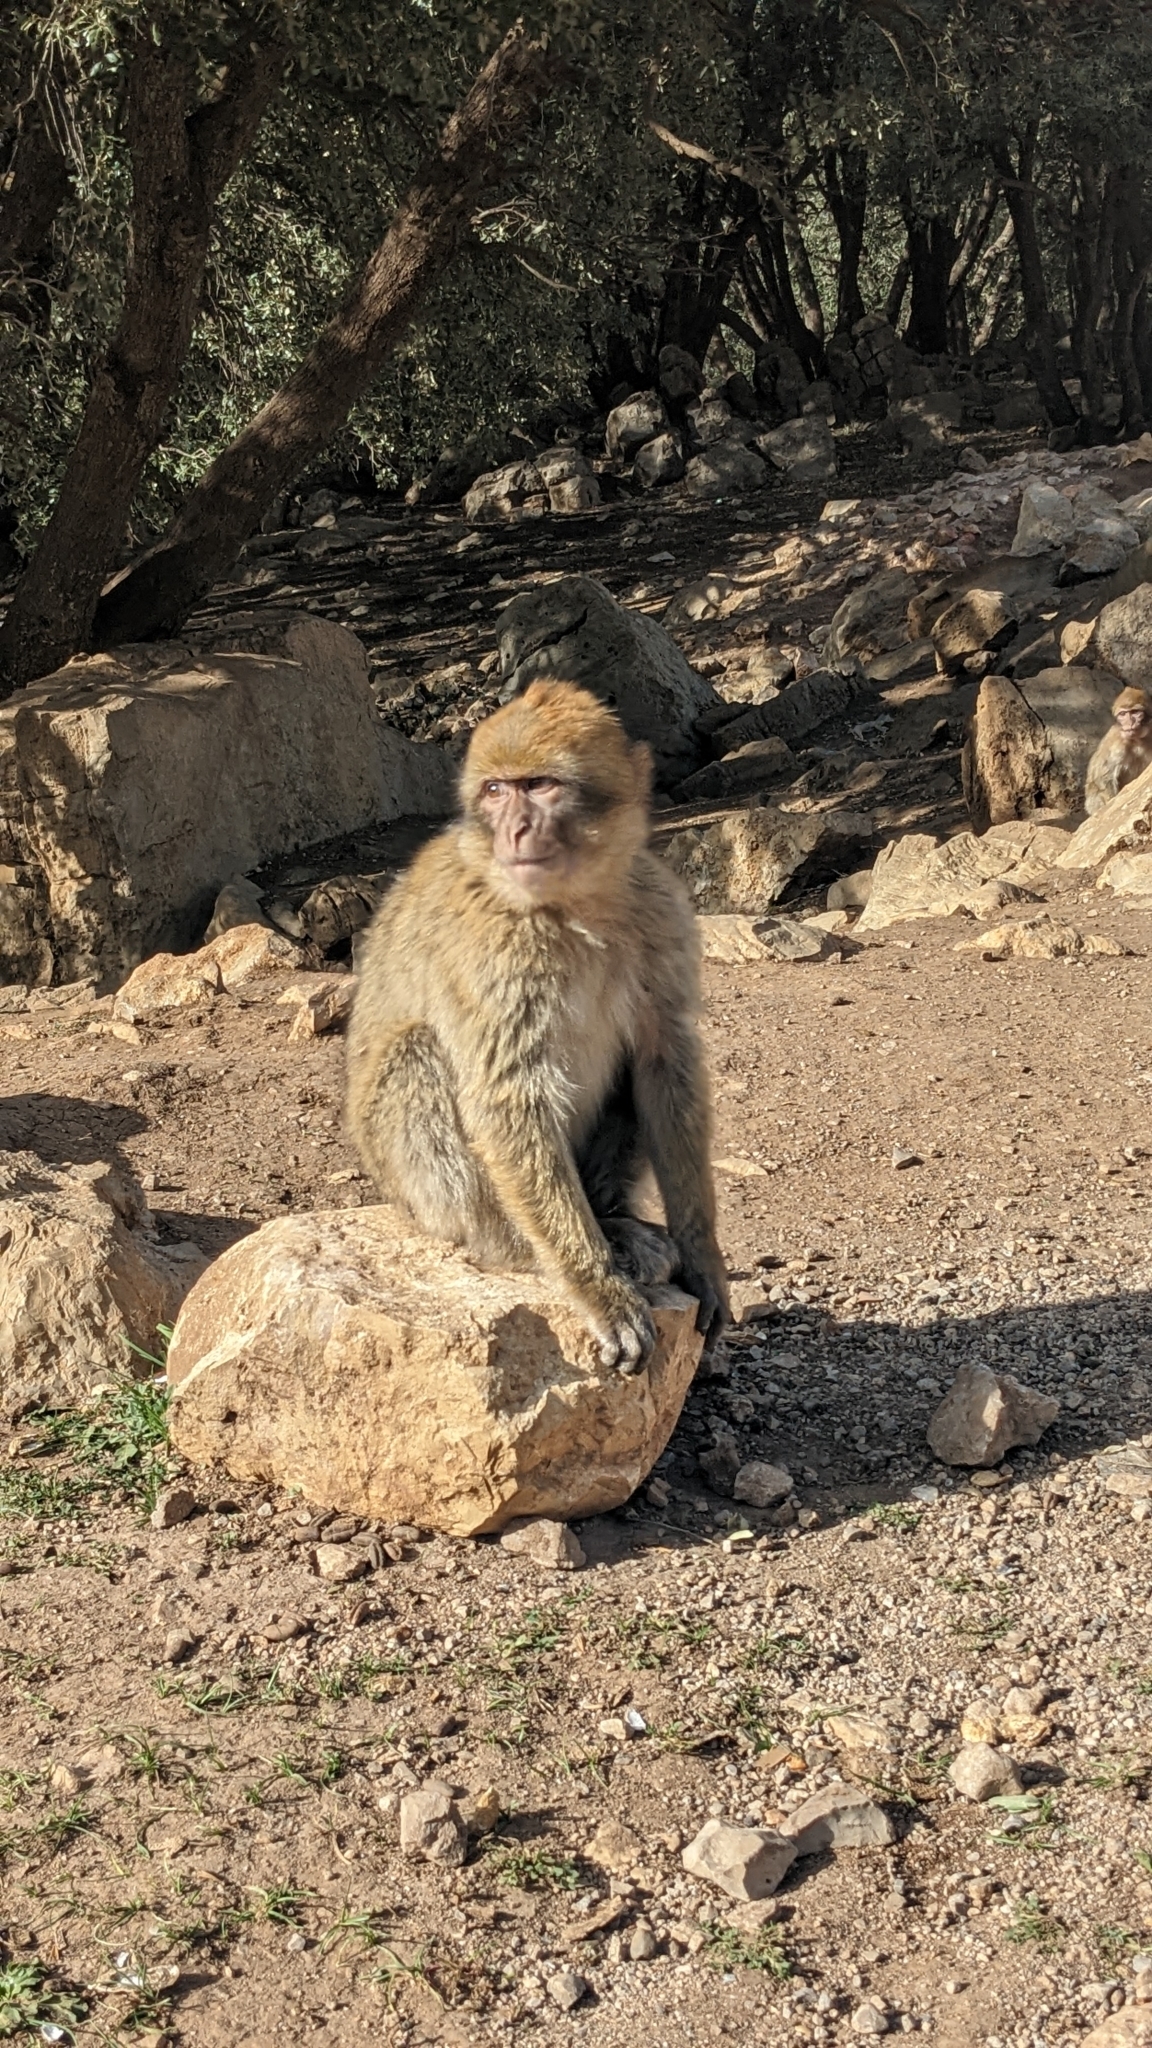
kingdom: Animalia
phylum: Chordata
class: Mammalia
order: Primates
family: Cercopithecidae
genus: Macaca
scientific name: Macaca sylvanus
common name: Barbary macaque
